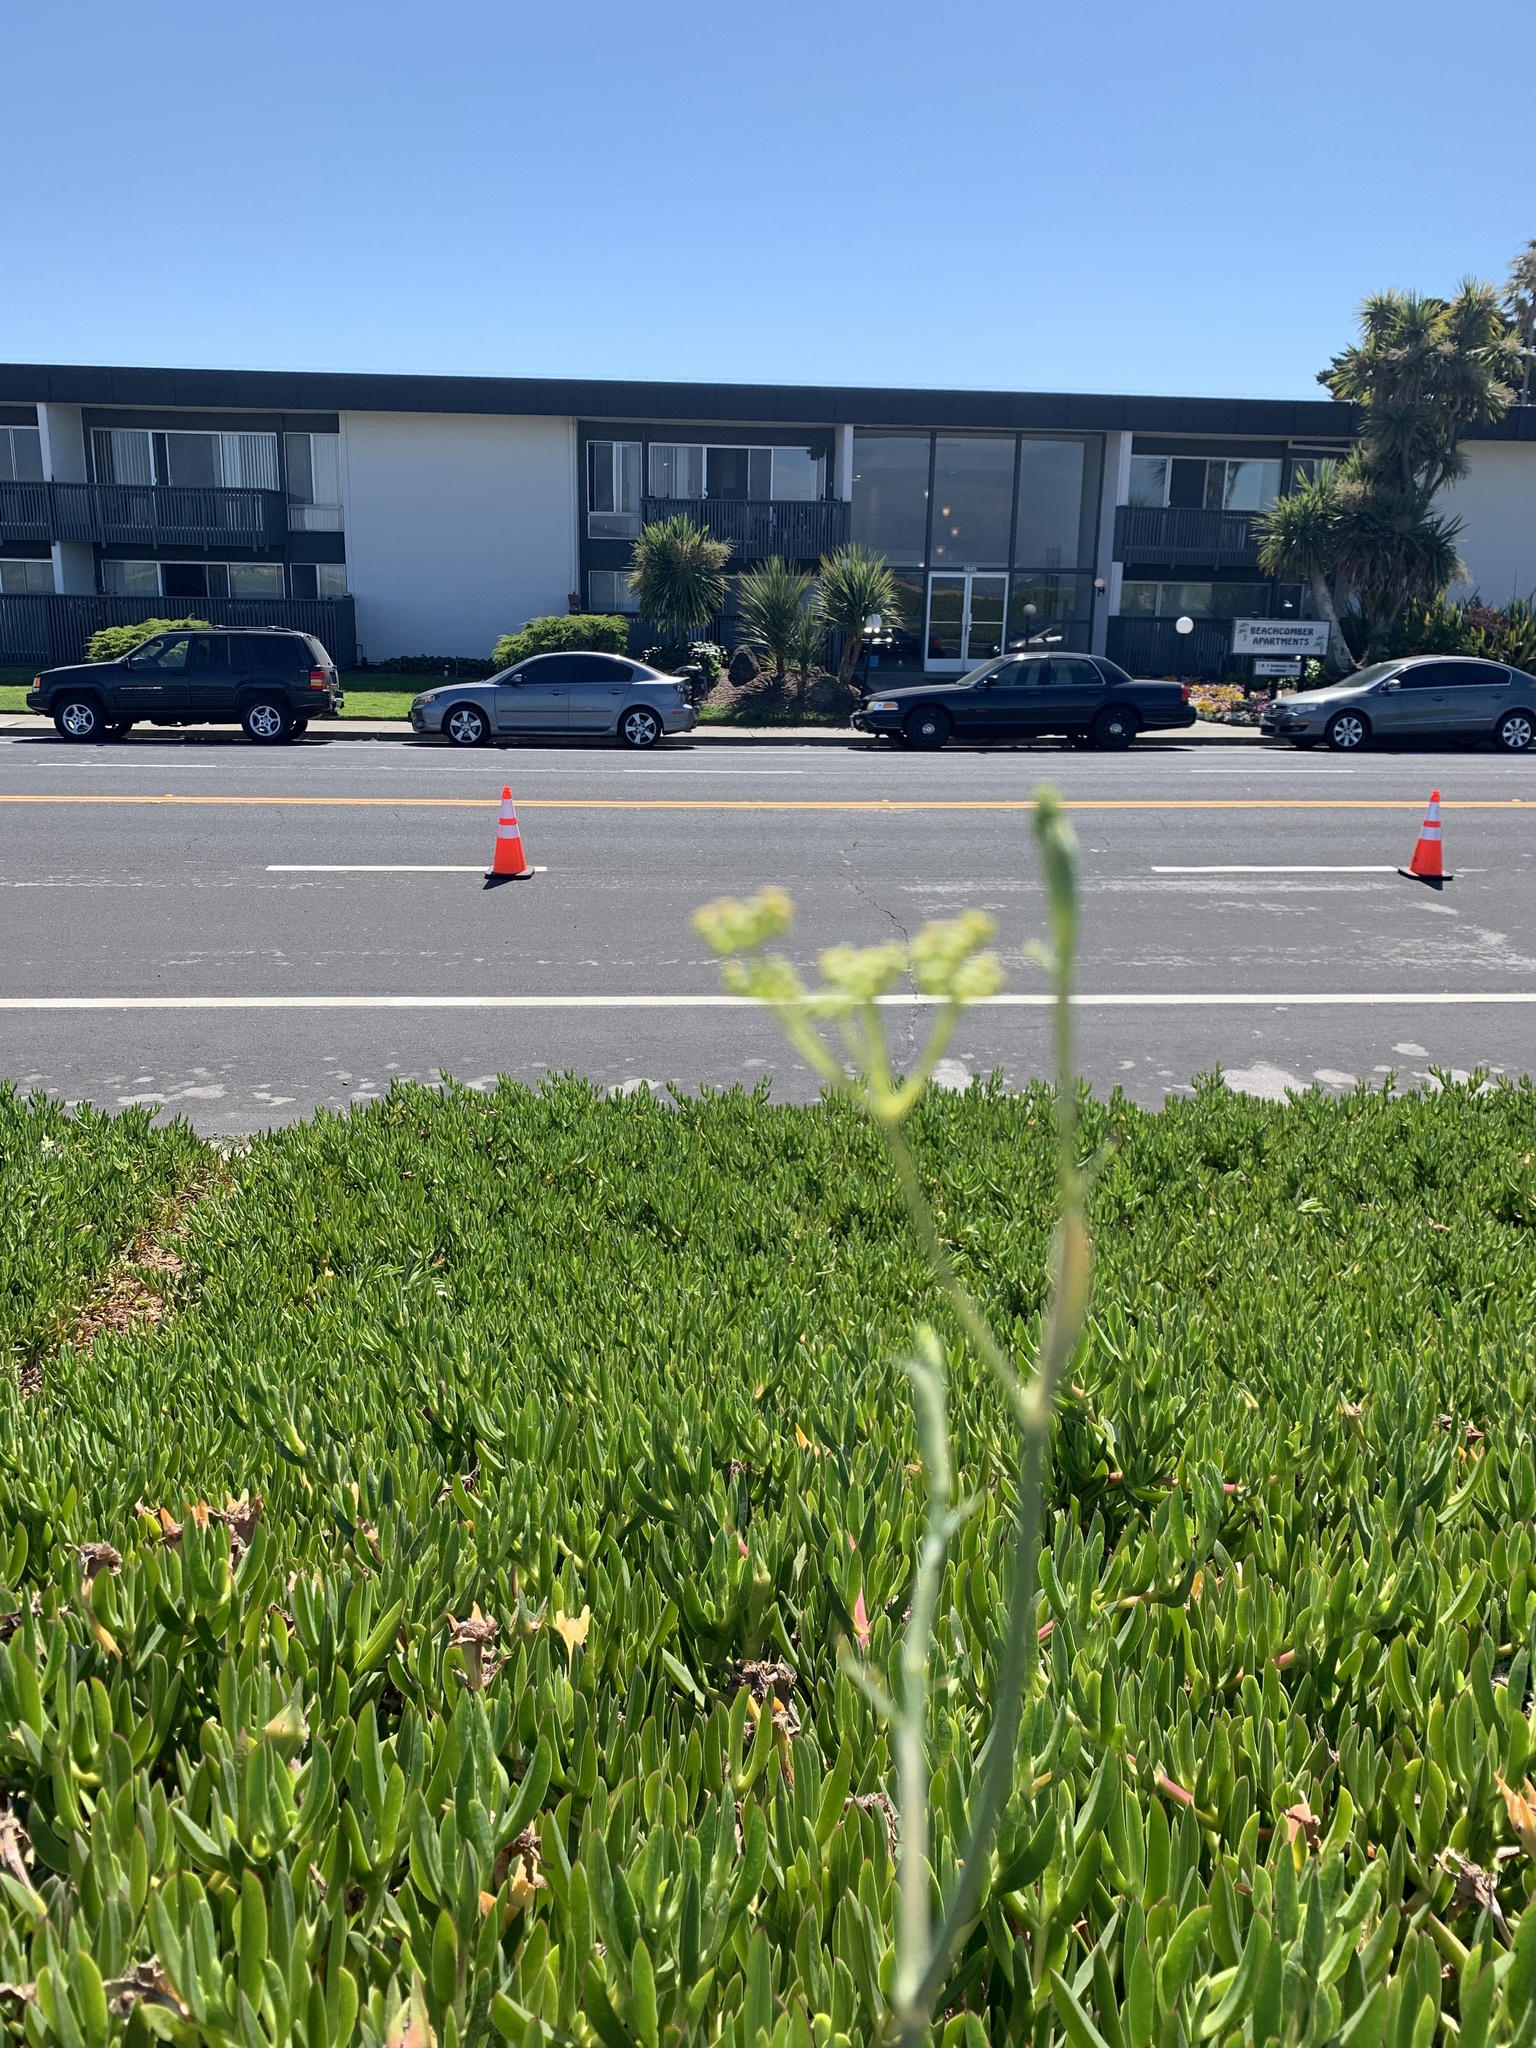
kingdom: Plantae
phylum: Tracheophyta
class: Magnoliopsida
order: Apiales
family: Apiaceae
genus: Foeniculum
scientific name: Foeniculum vulgare
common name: Fennel
